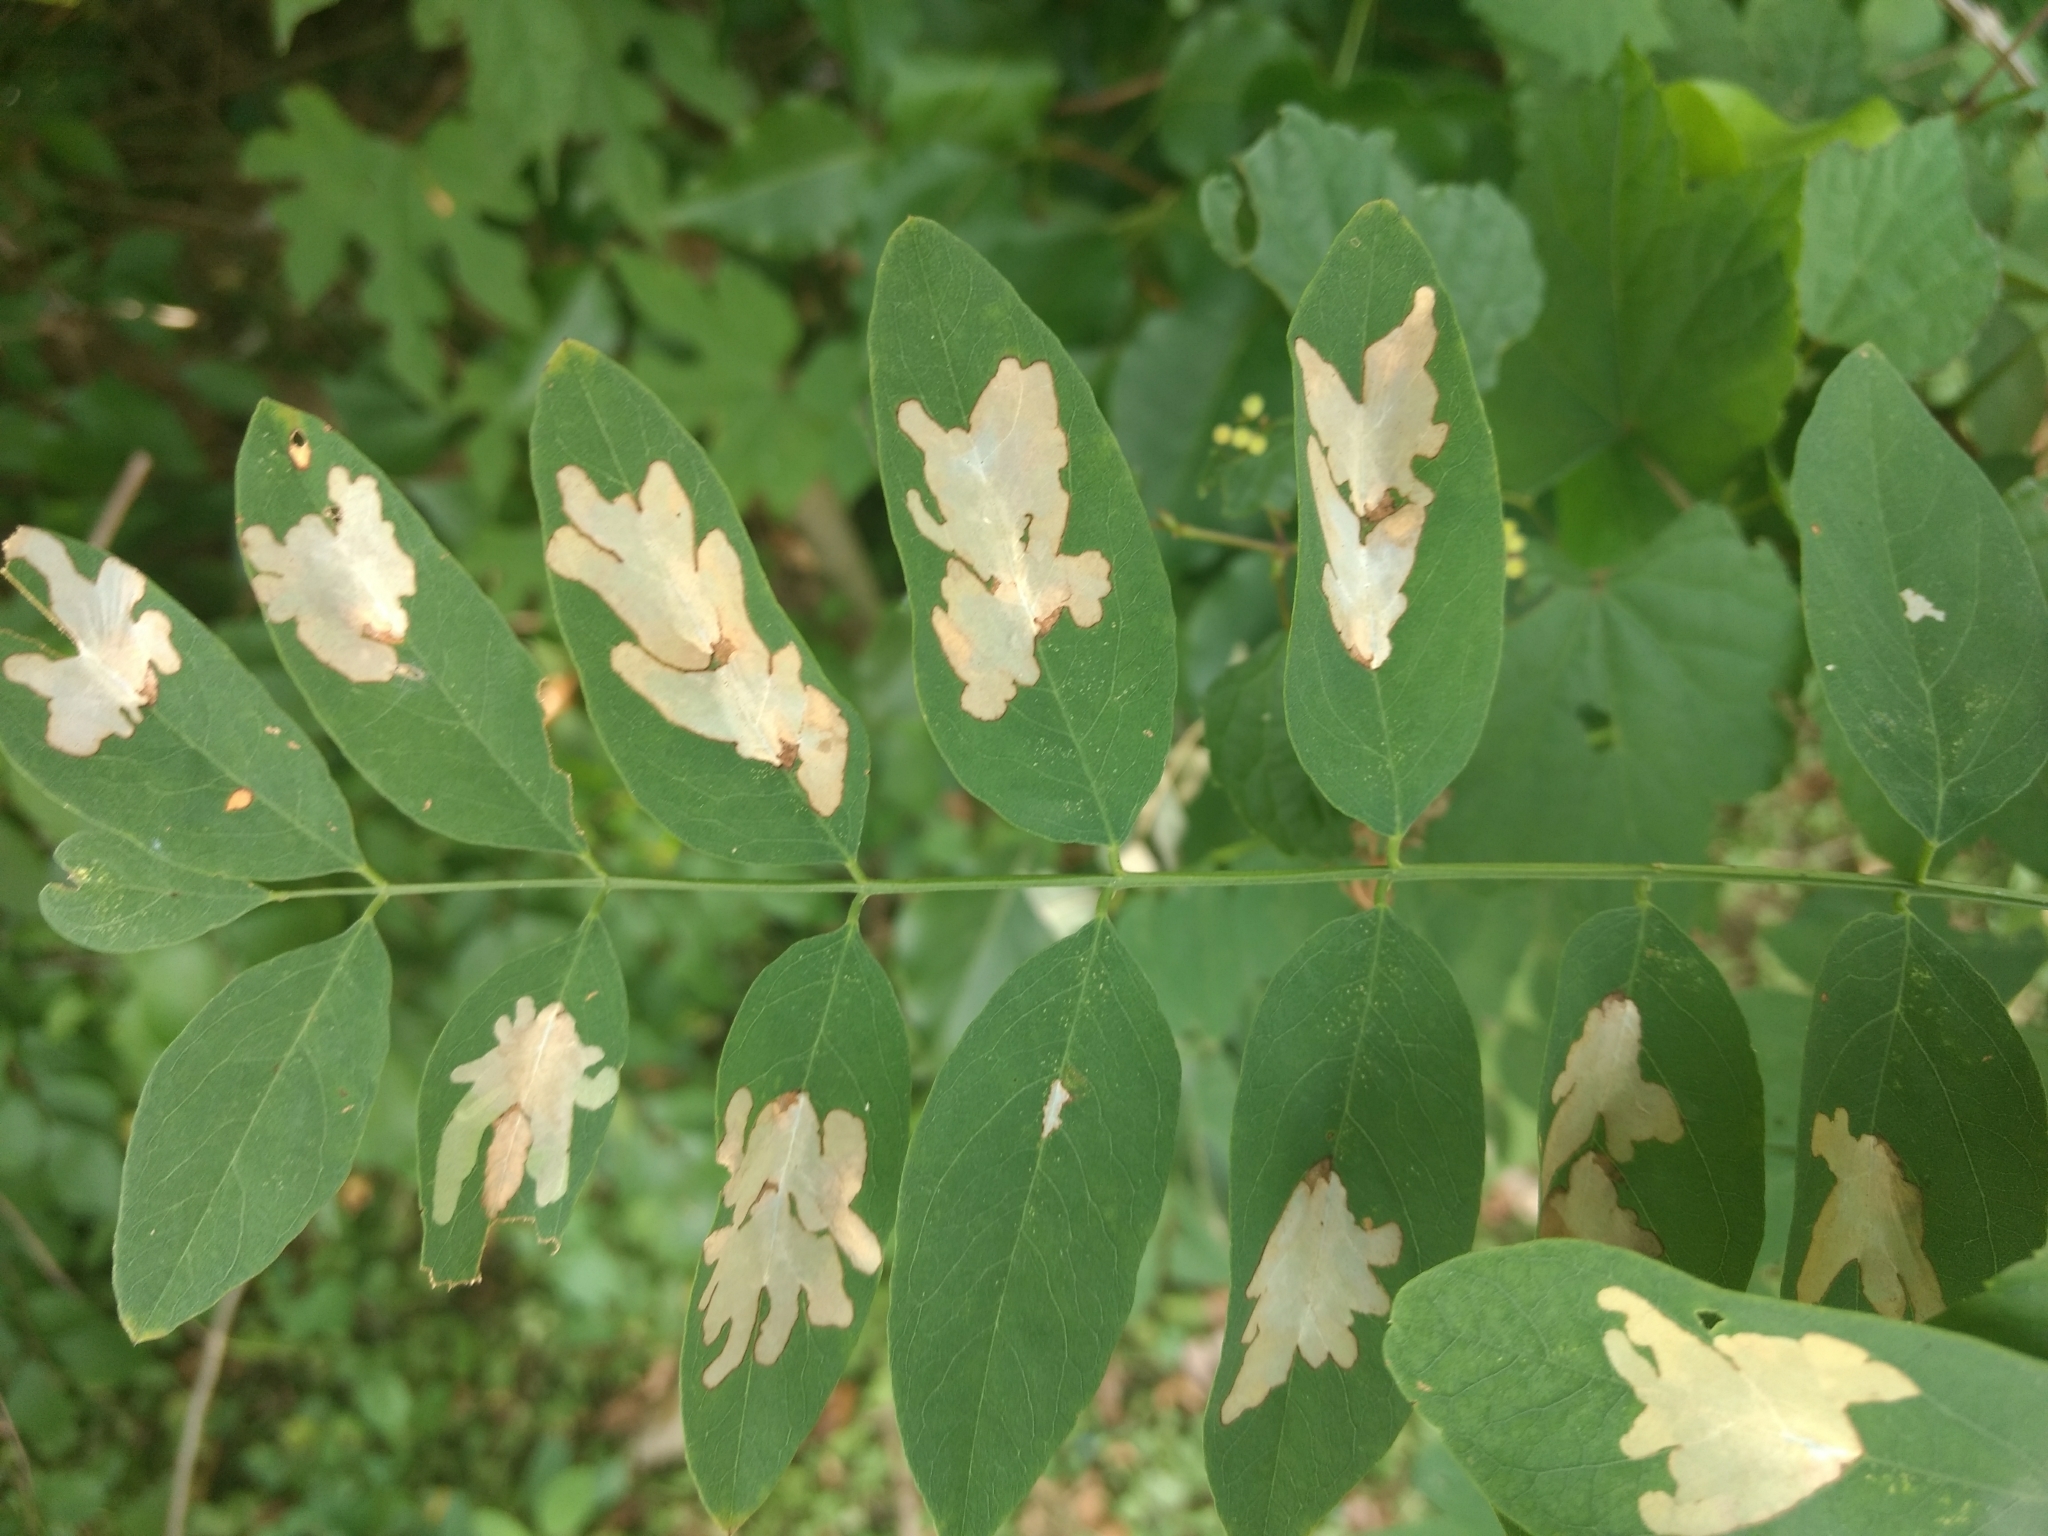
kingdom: Animalia
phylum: Arthropoda
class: Insecta
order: Lepidoptera
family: Gracillariidae
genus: Parectopa
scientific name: Parectopa robiniella
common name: Locust digitate leafminer
